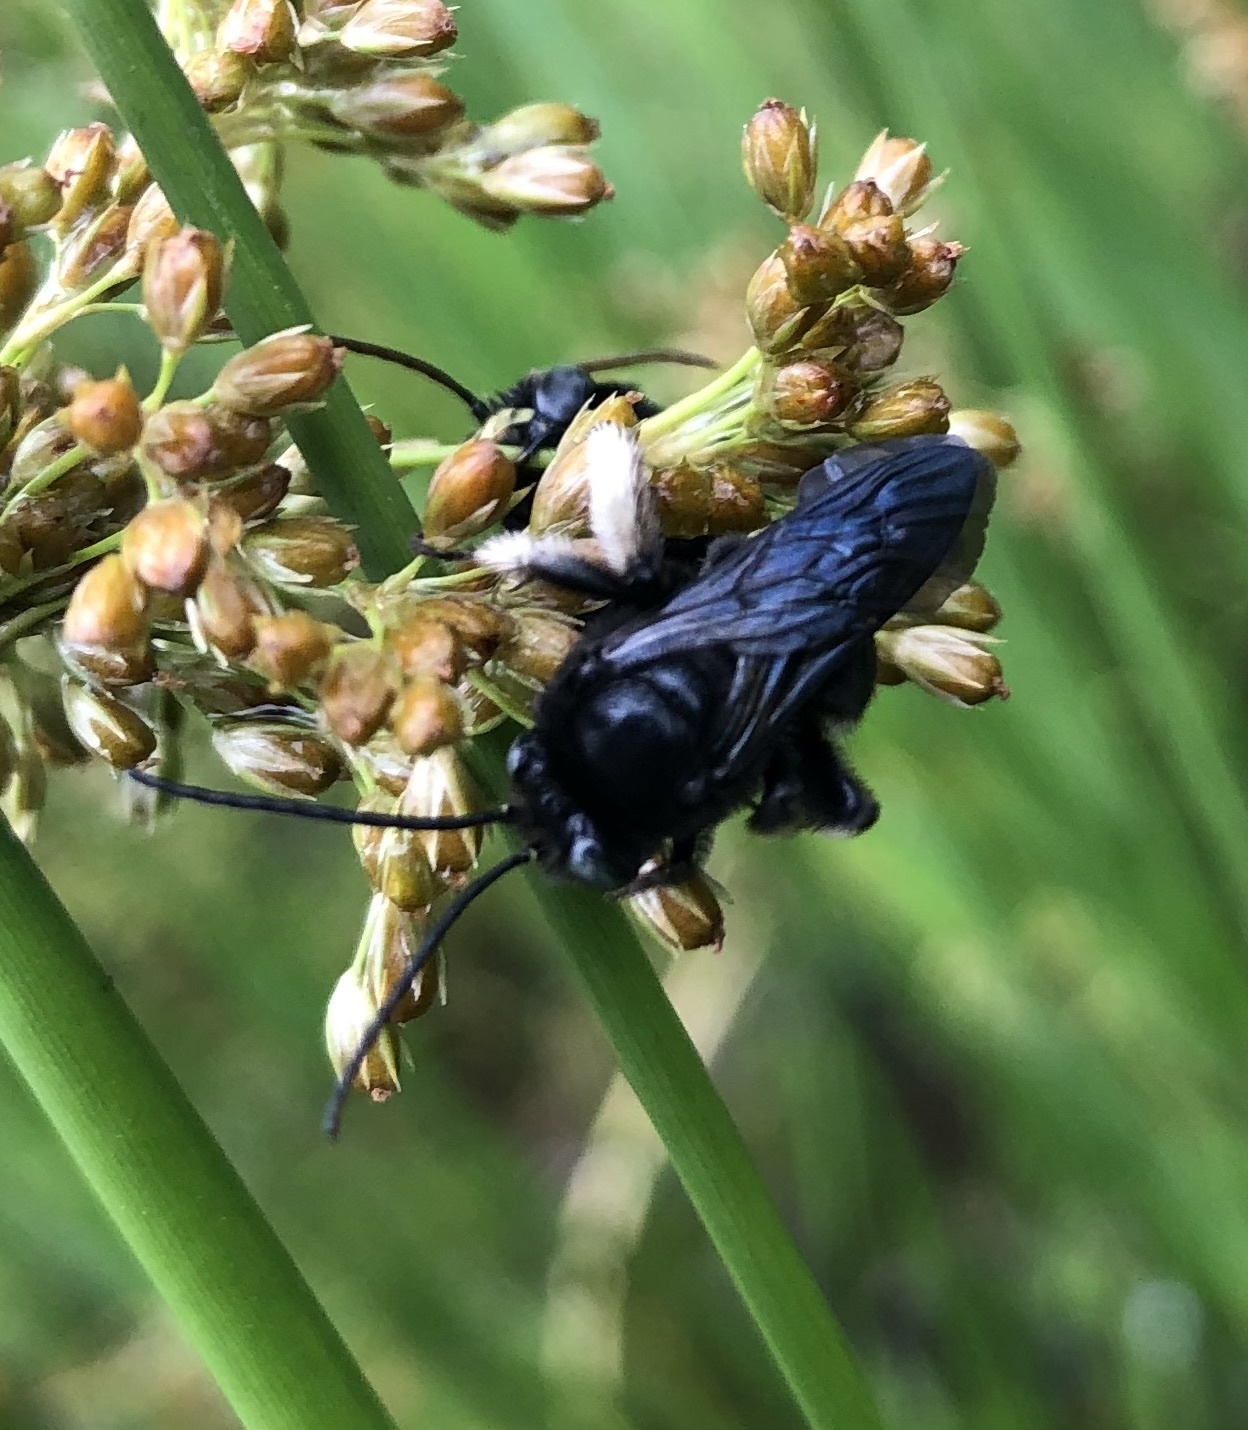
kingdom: Animalia
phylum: Arthropoda
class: Insecta
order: Hymenoptera
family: Apidae
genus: Melissodes
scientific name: Melissodes bimaculatus
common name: Two-spotted long-horned bee
